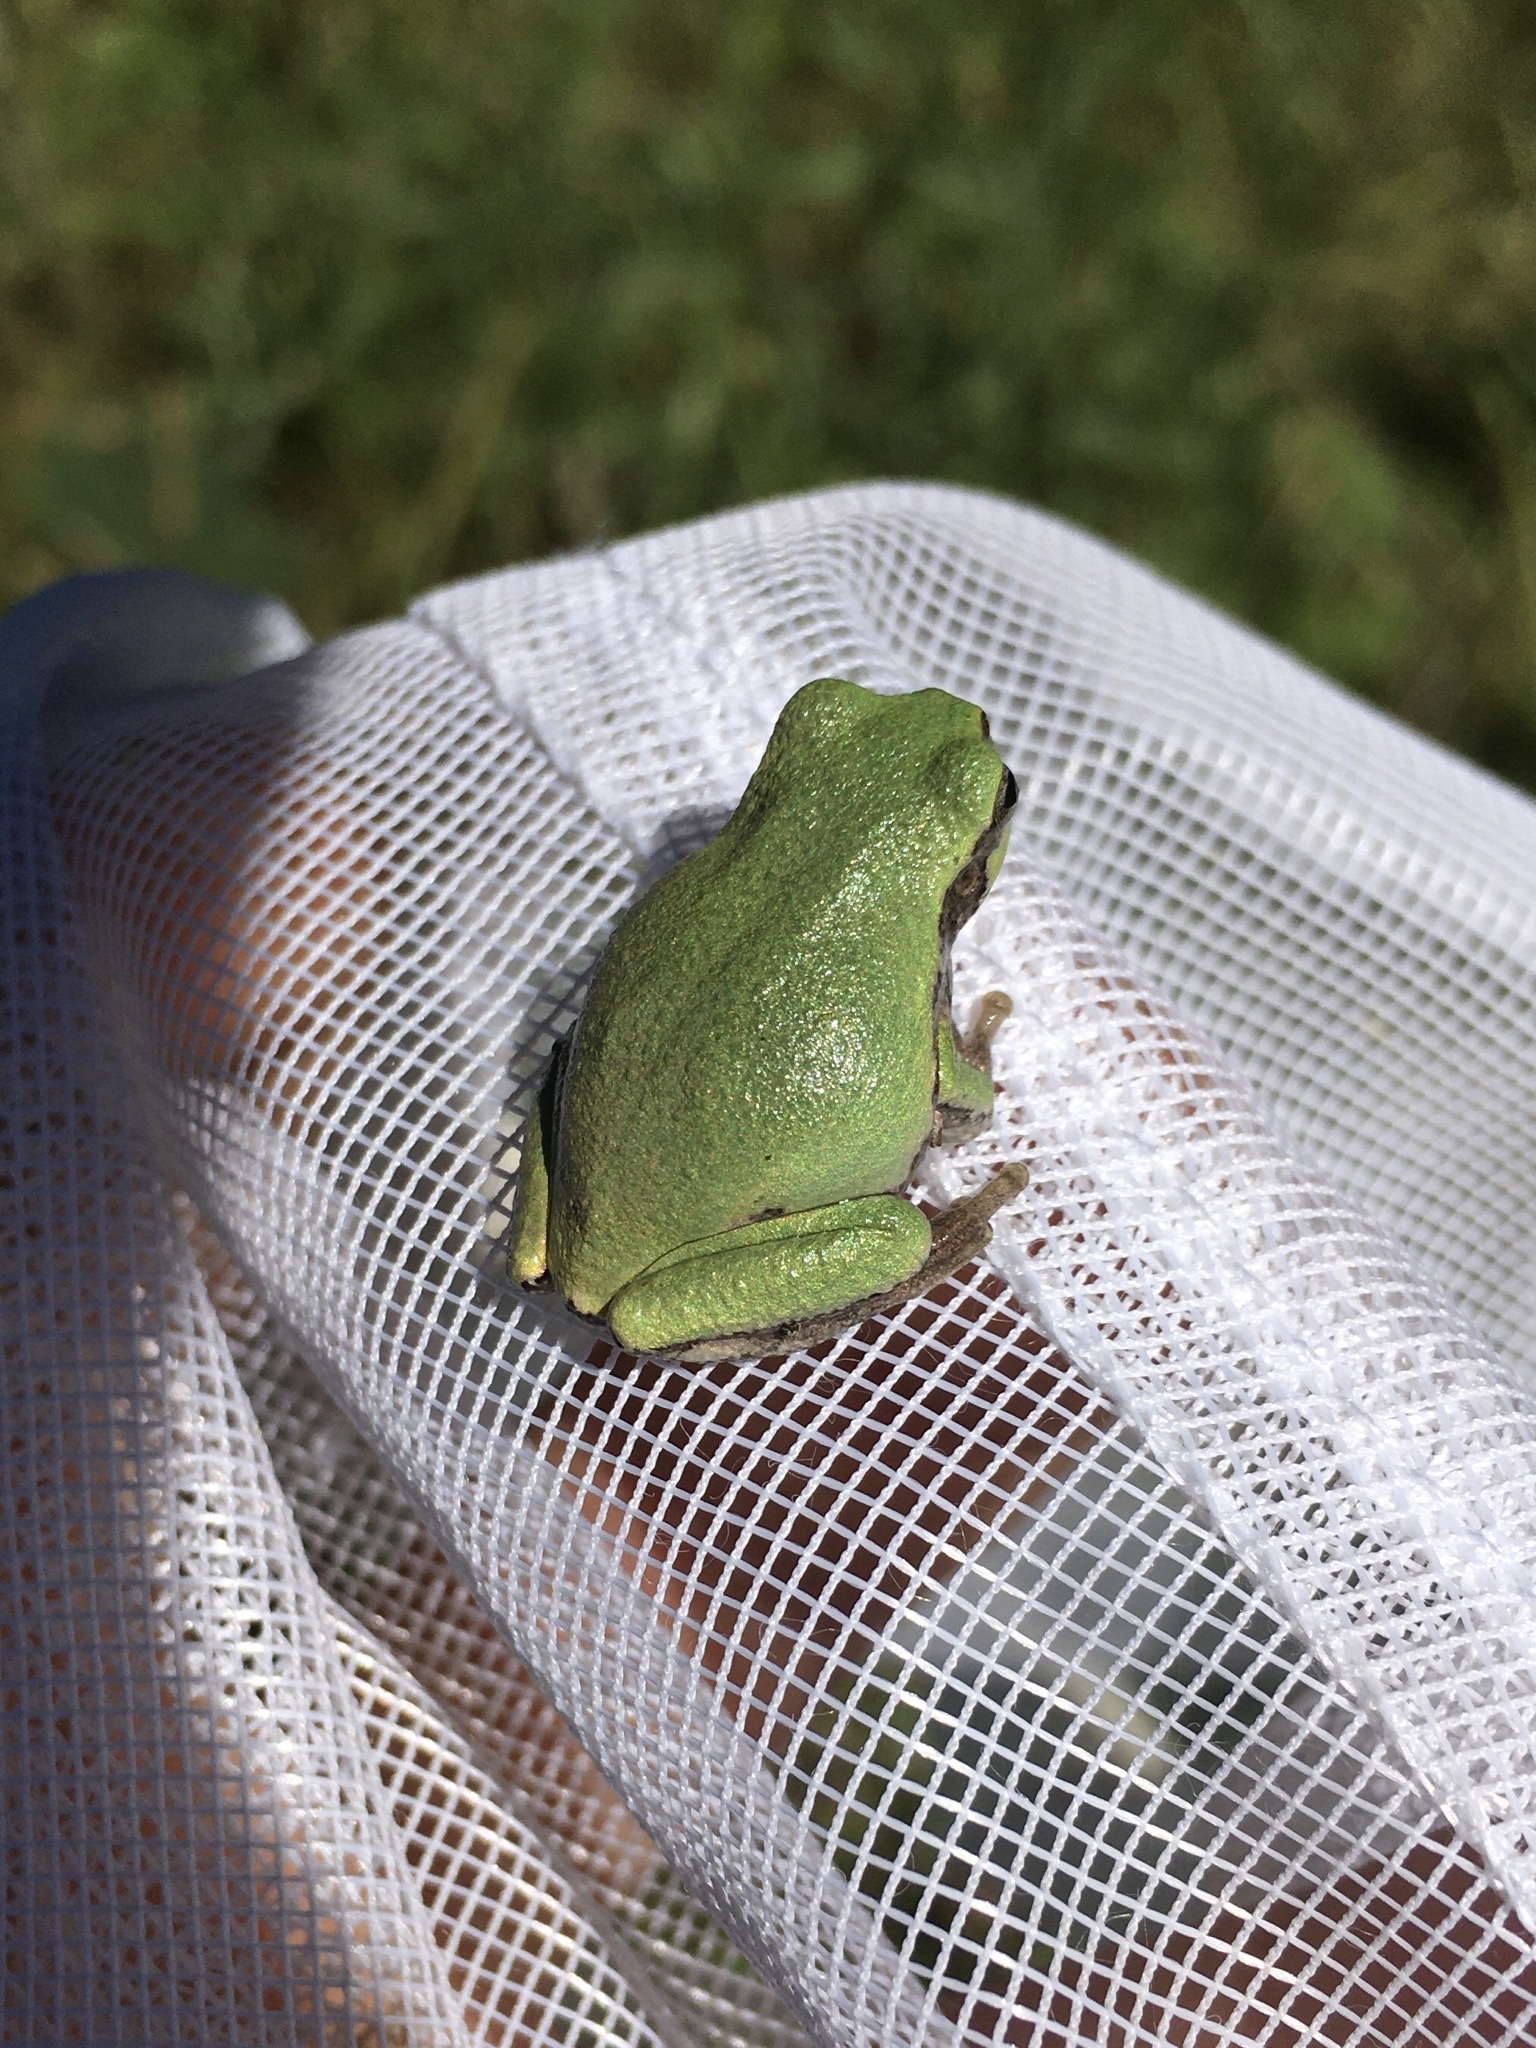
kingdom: Animalia
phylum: Chordata
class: Amphibia
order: Anura
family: Hylidae
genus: Hyla
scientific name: Hyla
